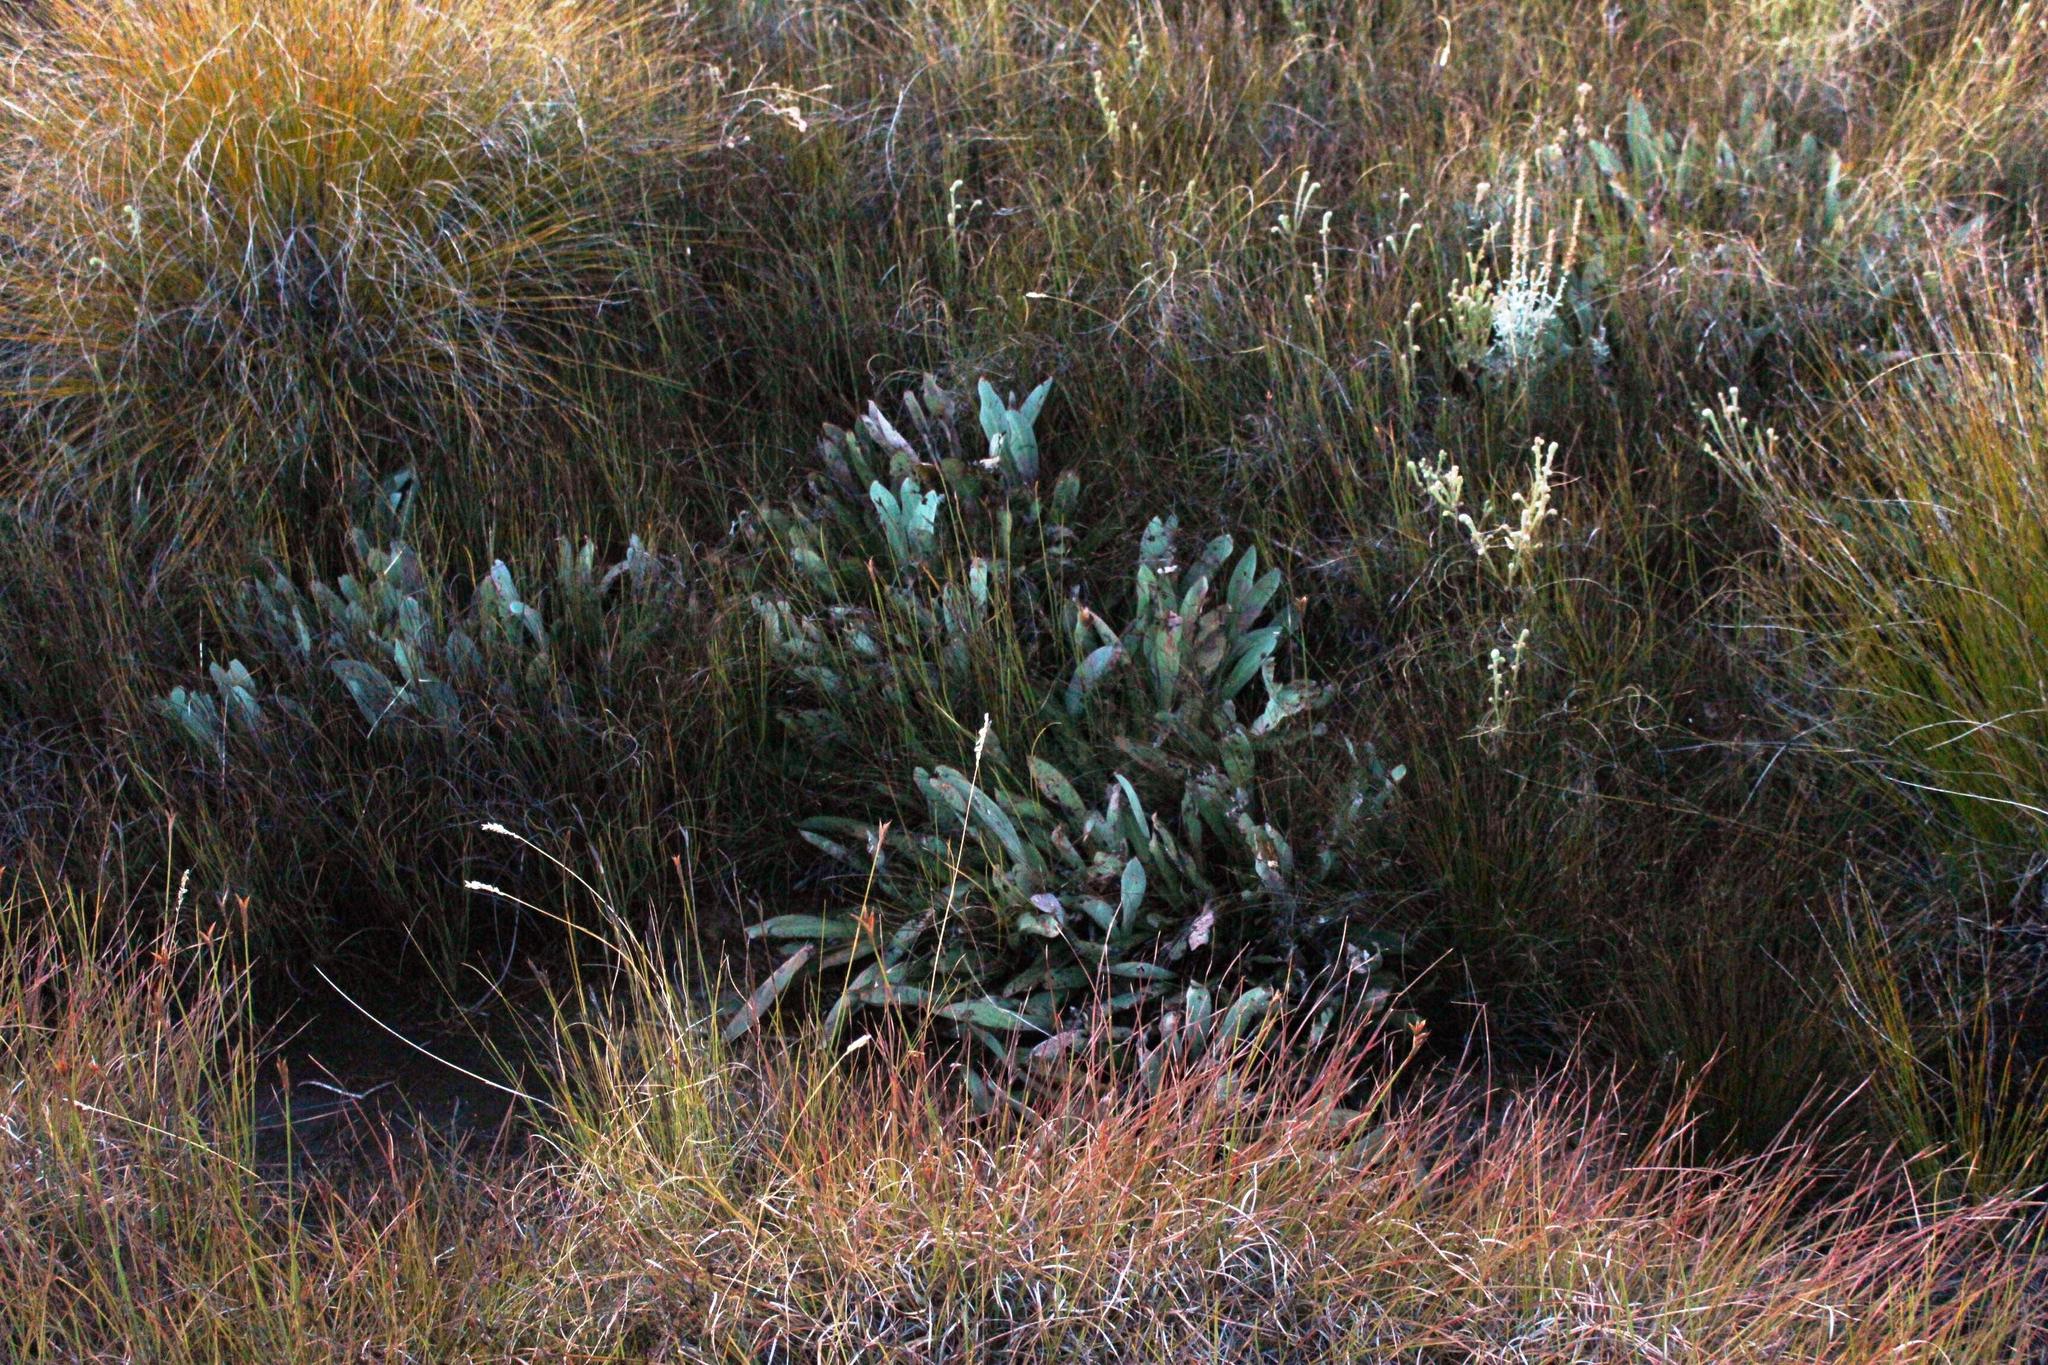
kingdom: Plantae
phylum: Tracheophyta
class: Magnoliopsida
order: Proteales
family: Proteaceae
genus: Protea
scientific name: Protea laevis
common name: Smooth-leaf sugarbush
